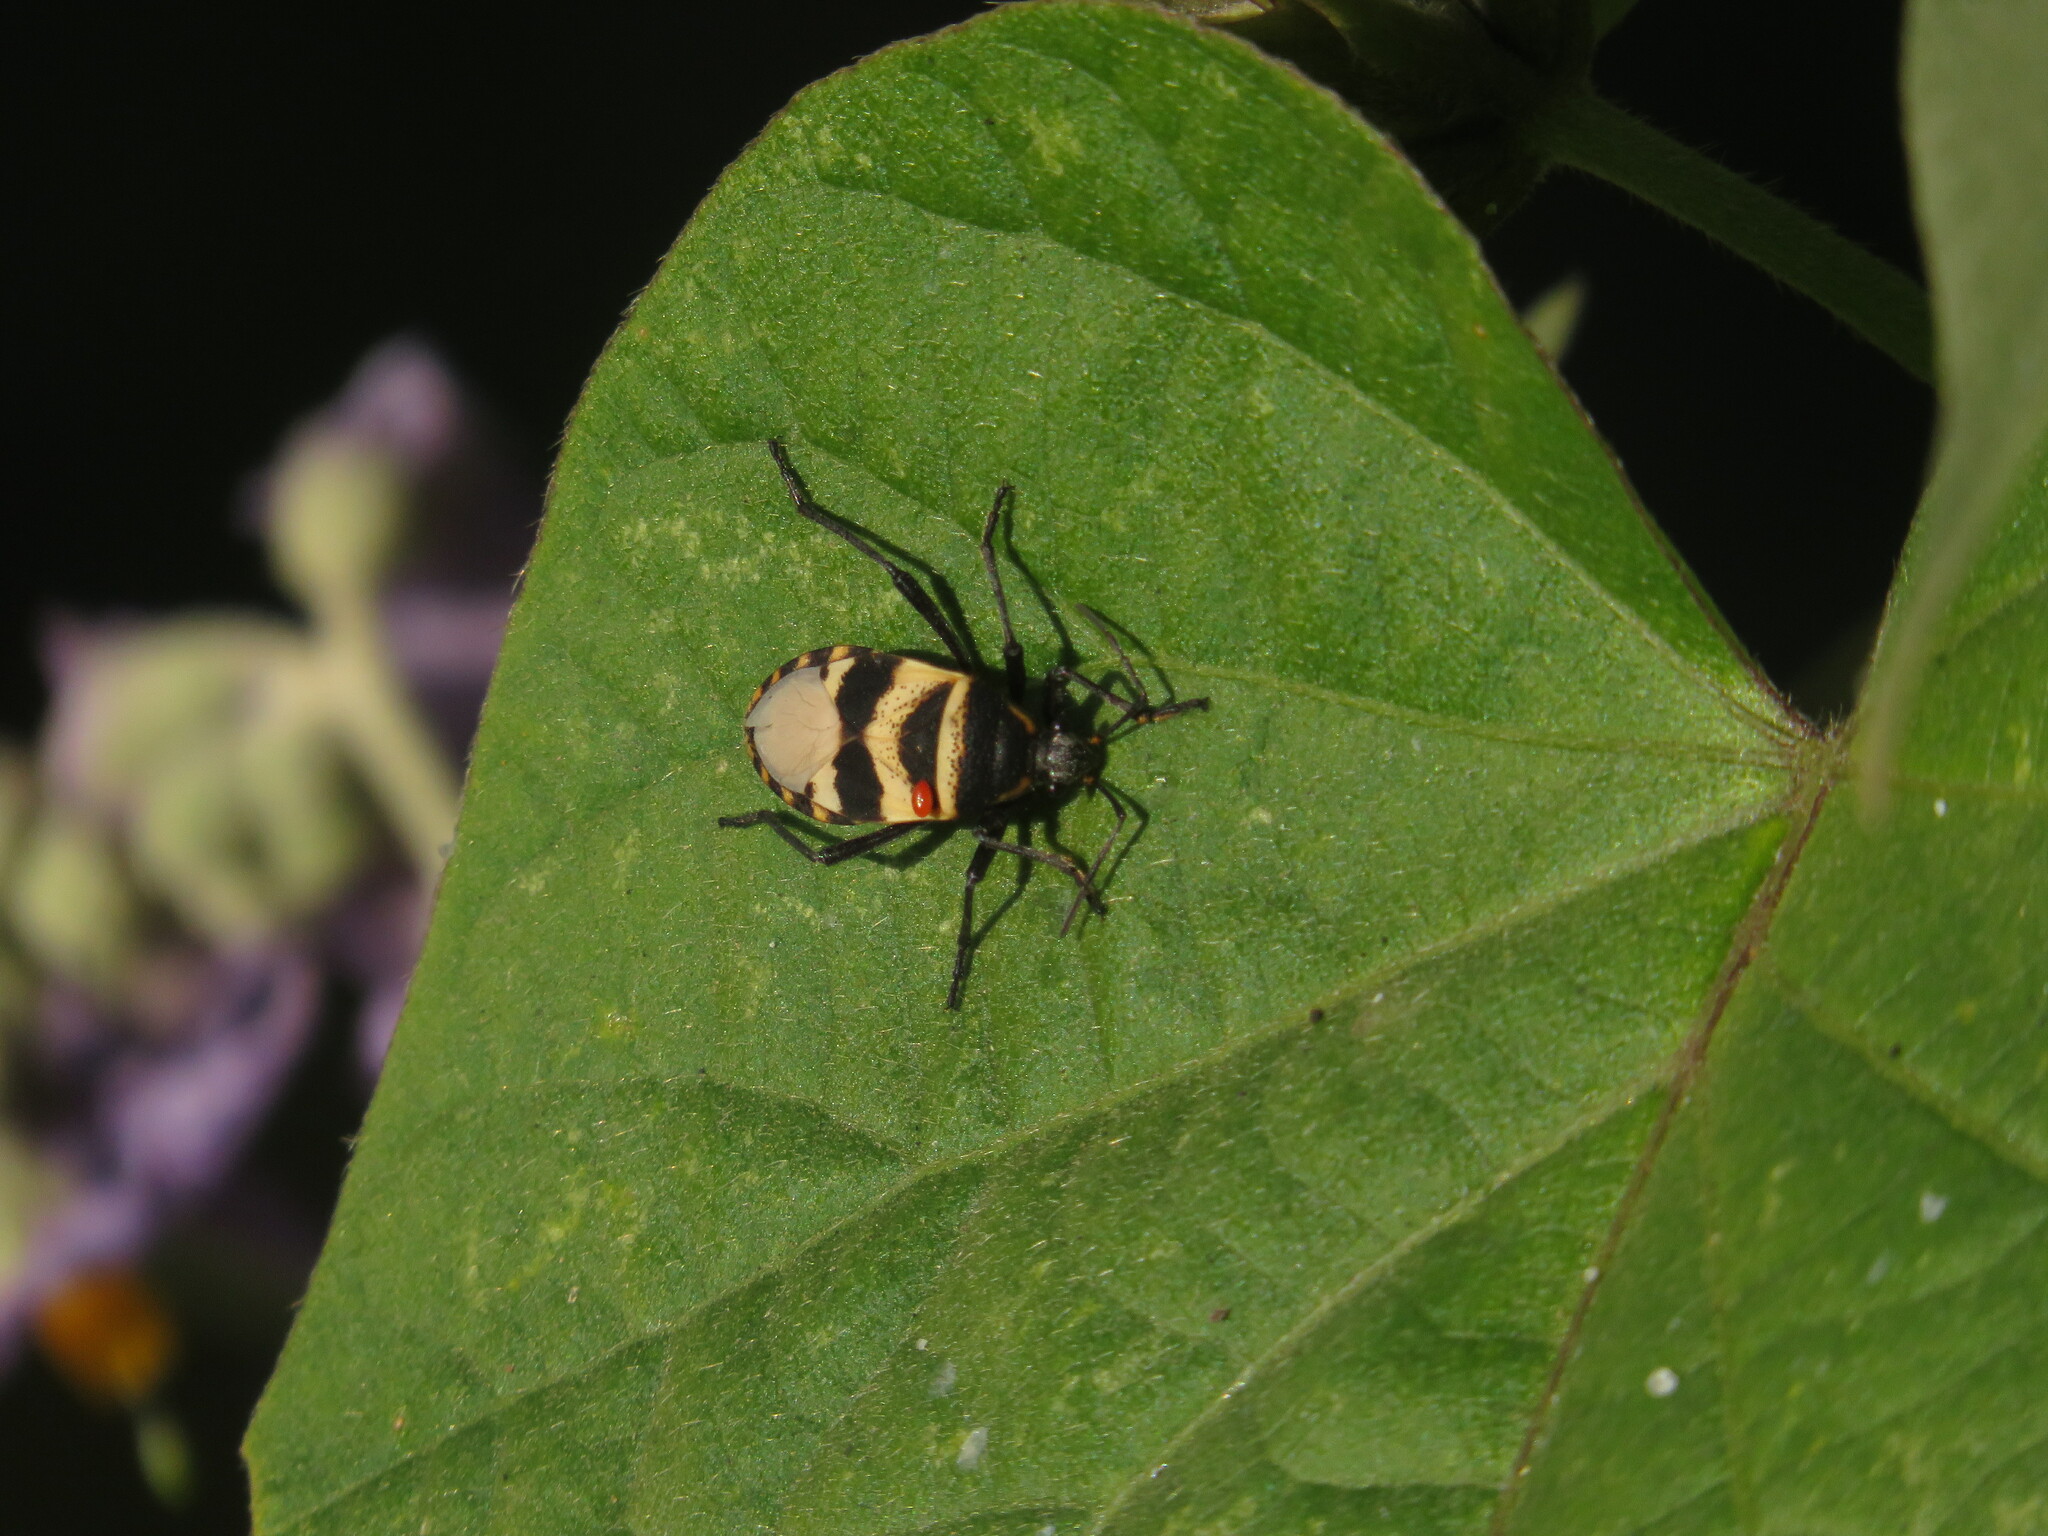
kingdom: Animalia
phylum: Arthropoda
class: Insecta
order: Hemiptera
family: Largidae
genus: Largus
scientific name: Largus fasciatus
